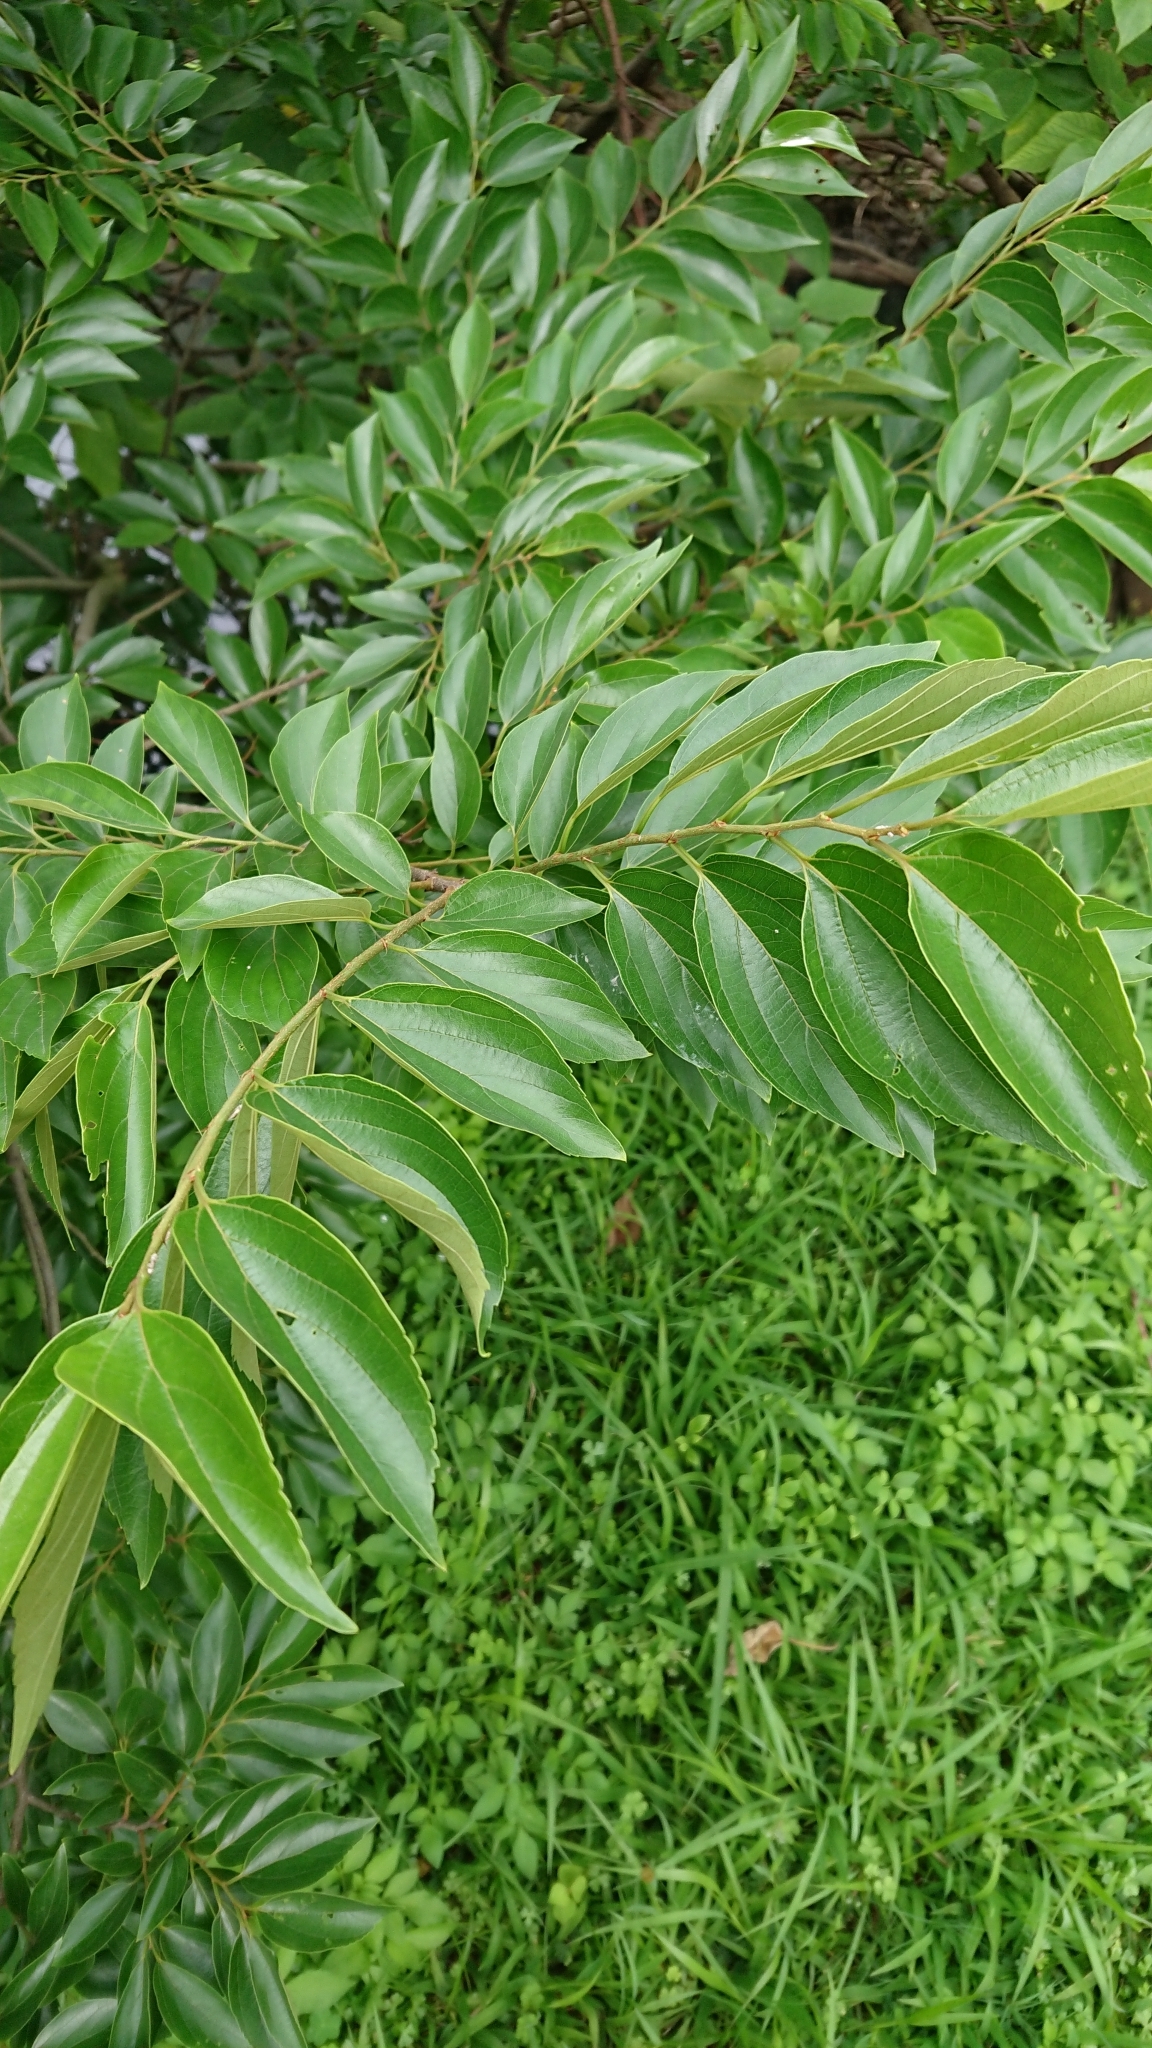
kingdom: Plantae
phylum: Tracheophyta
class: Magnoliopsida
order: Rosales
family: Cannabaceae
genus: Celtis
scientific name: Celtis sinensis
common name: Chinese hackberry
